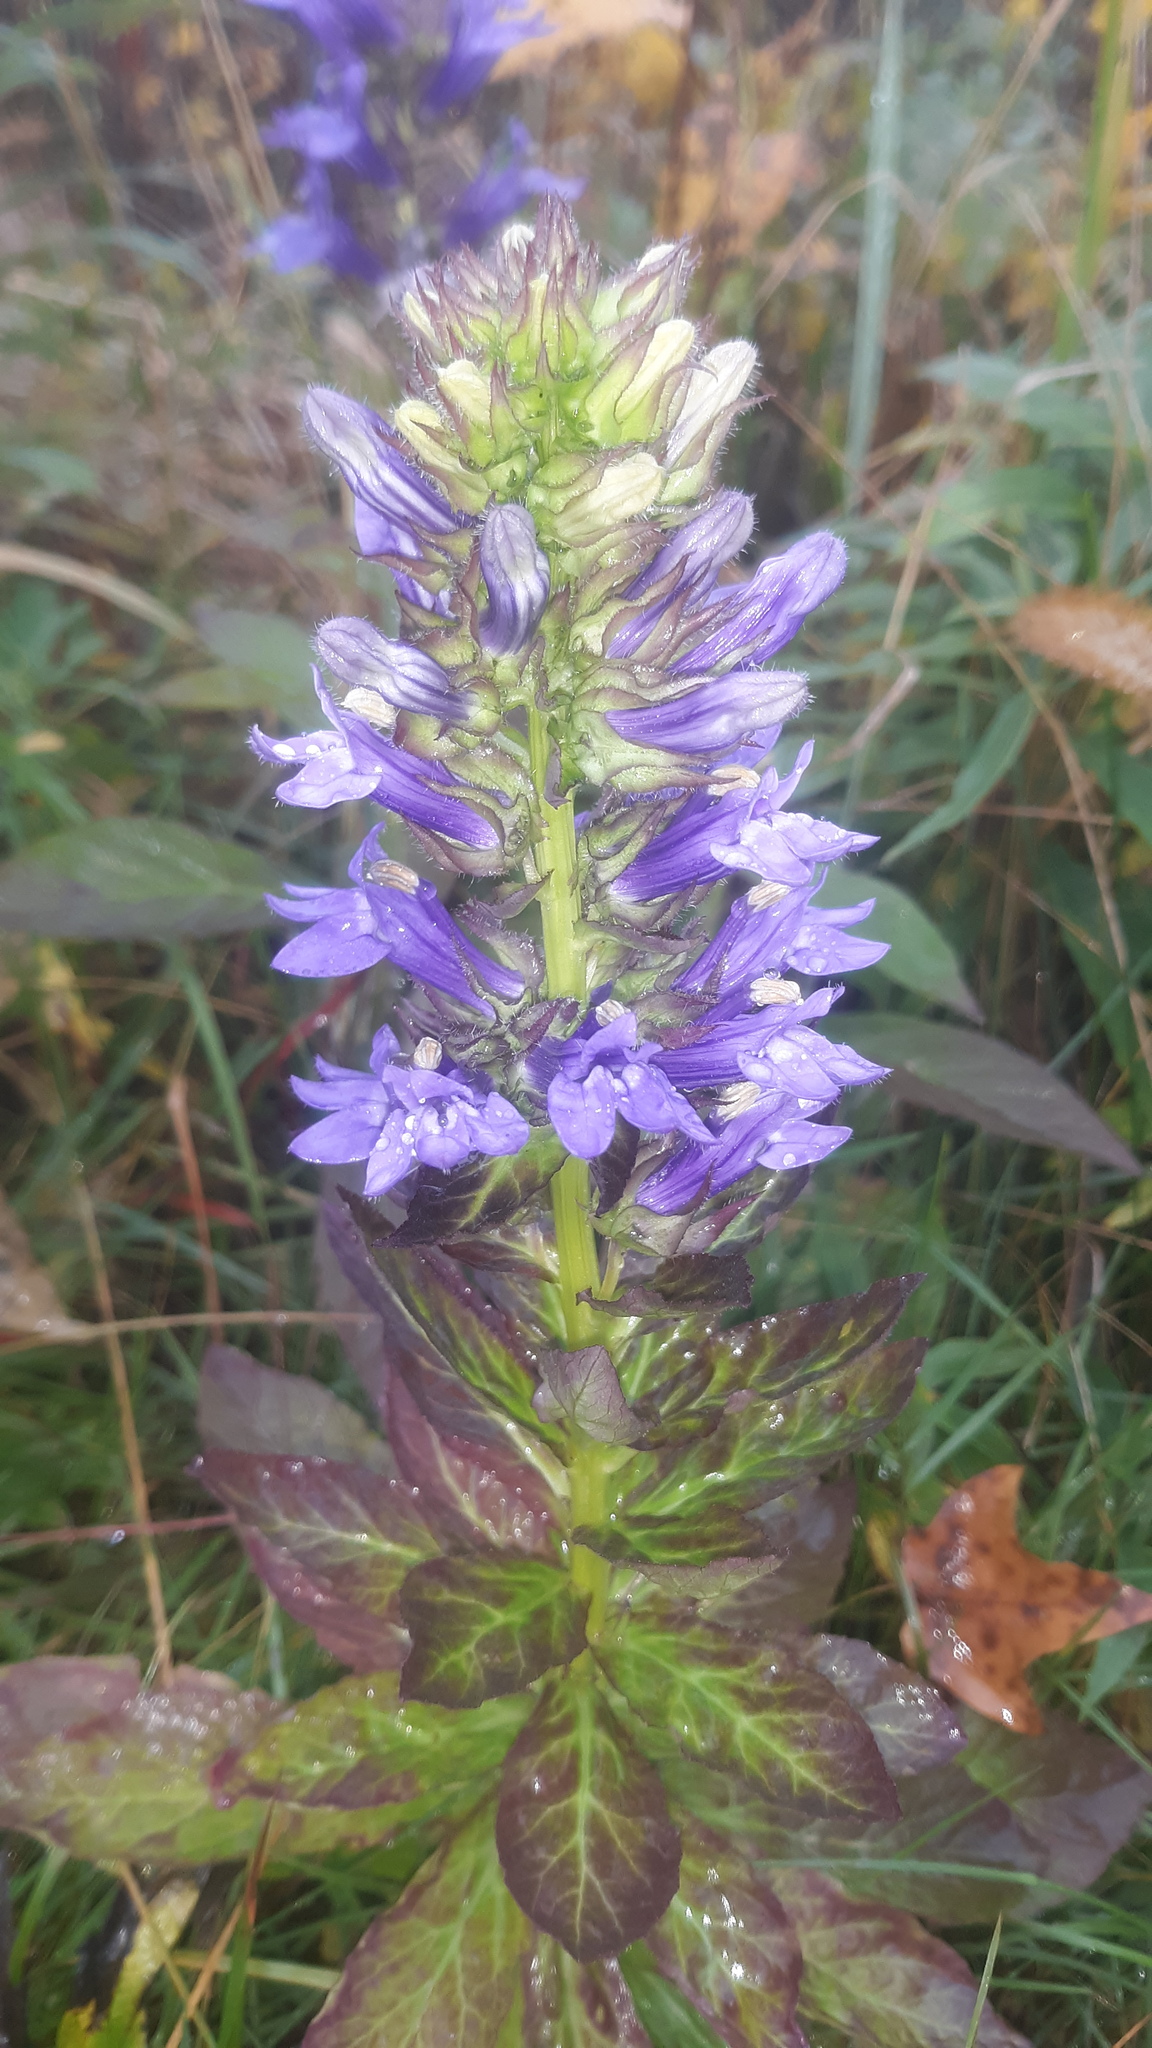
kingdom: Plantae
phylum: Tracheophyta
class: Magnoliopsida
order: Asterales
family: Campanulaceae
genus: Lobelia
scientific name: Lobelia siphilitica
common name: Great lobelia
